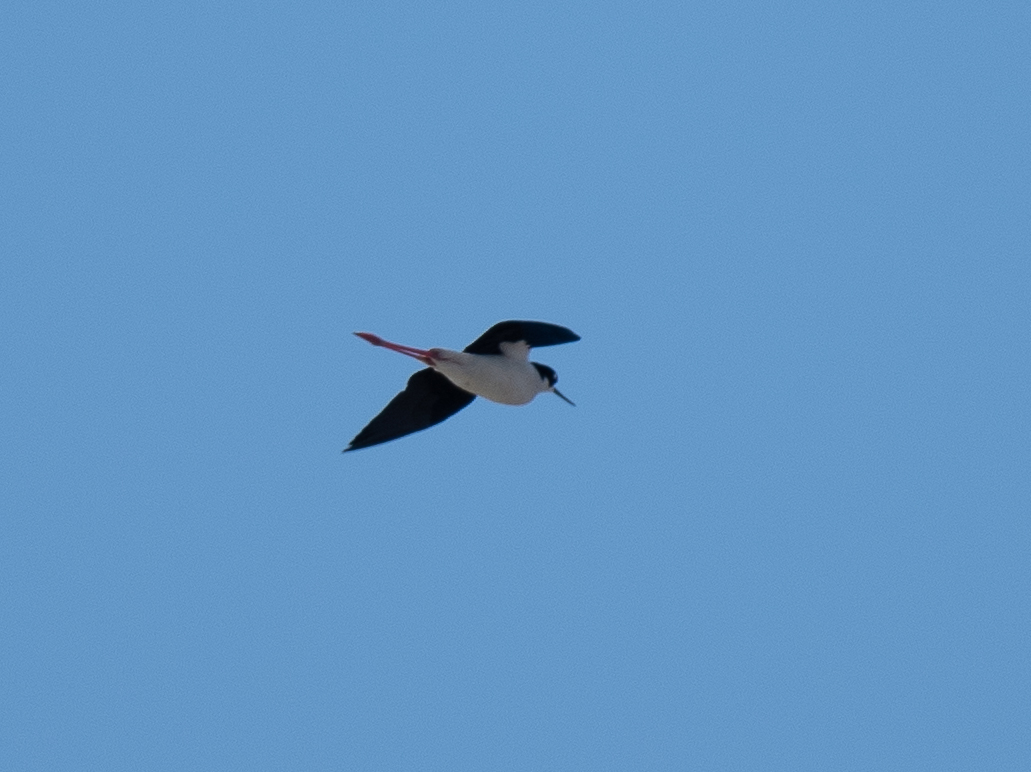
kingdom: Animalia
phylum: Chordata
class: Aves
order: Charadriiformes
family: Recurvirostridae
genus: Himantopus
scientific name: Himantopus mexicanus
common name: Black-necked stilt
